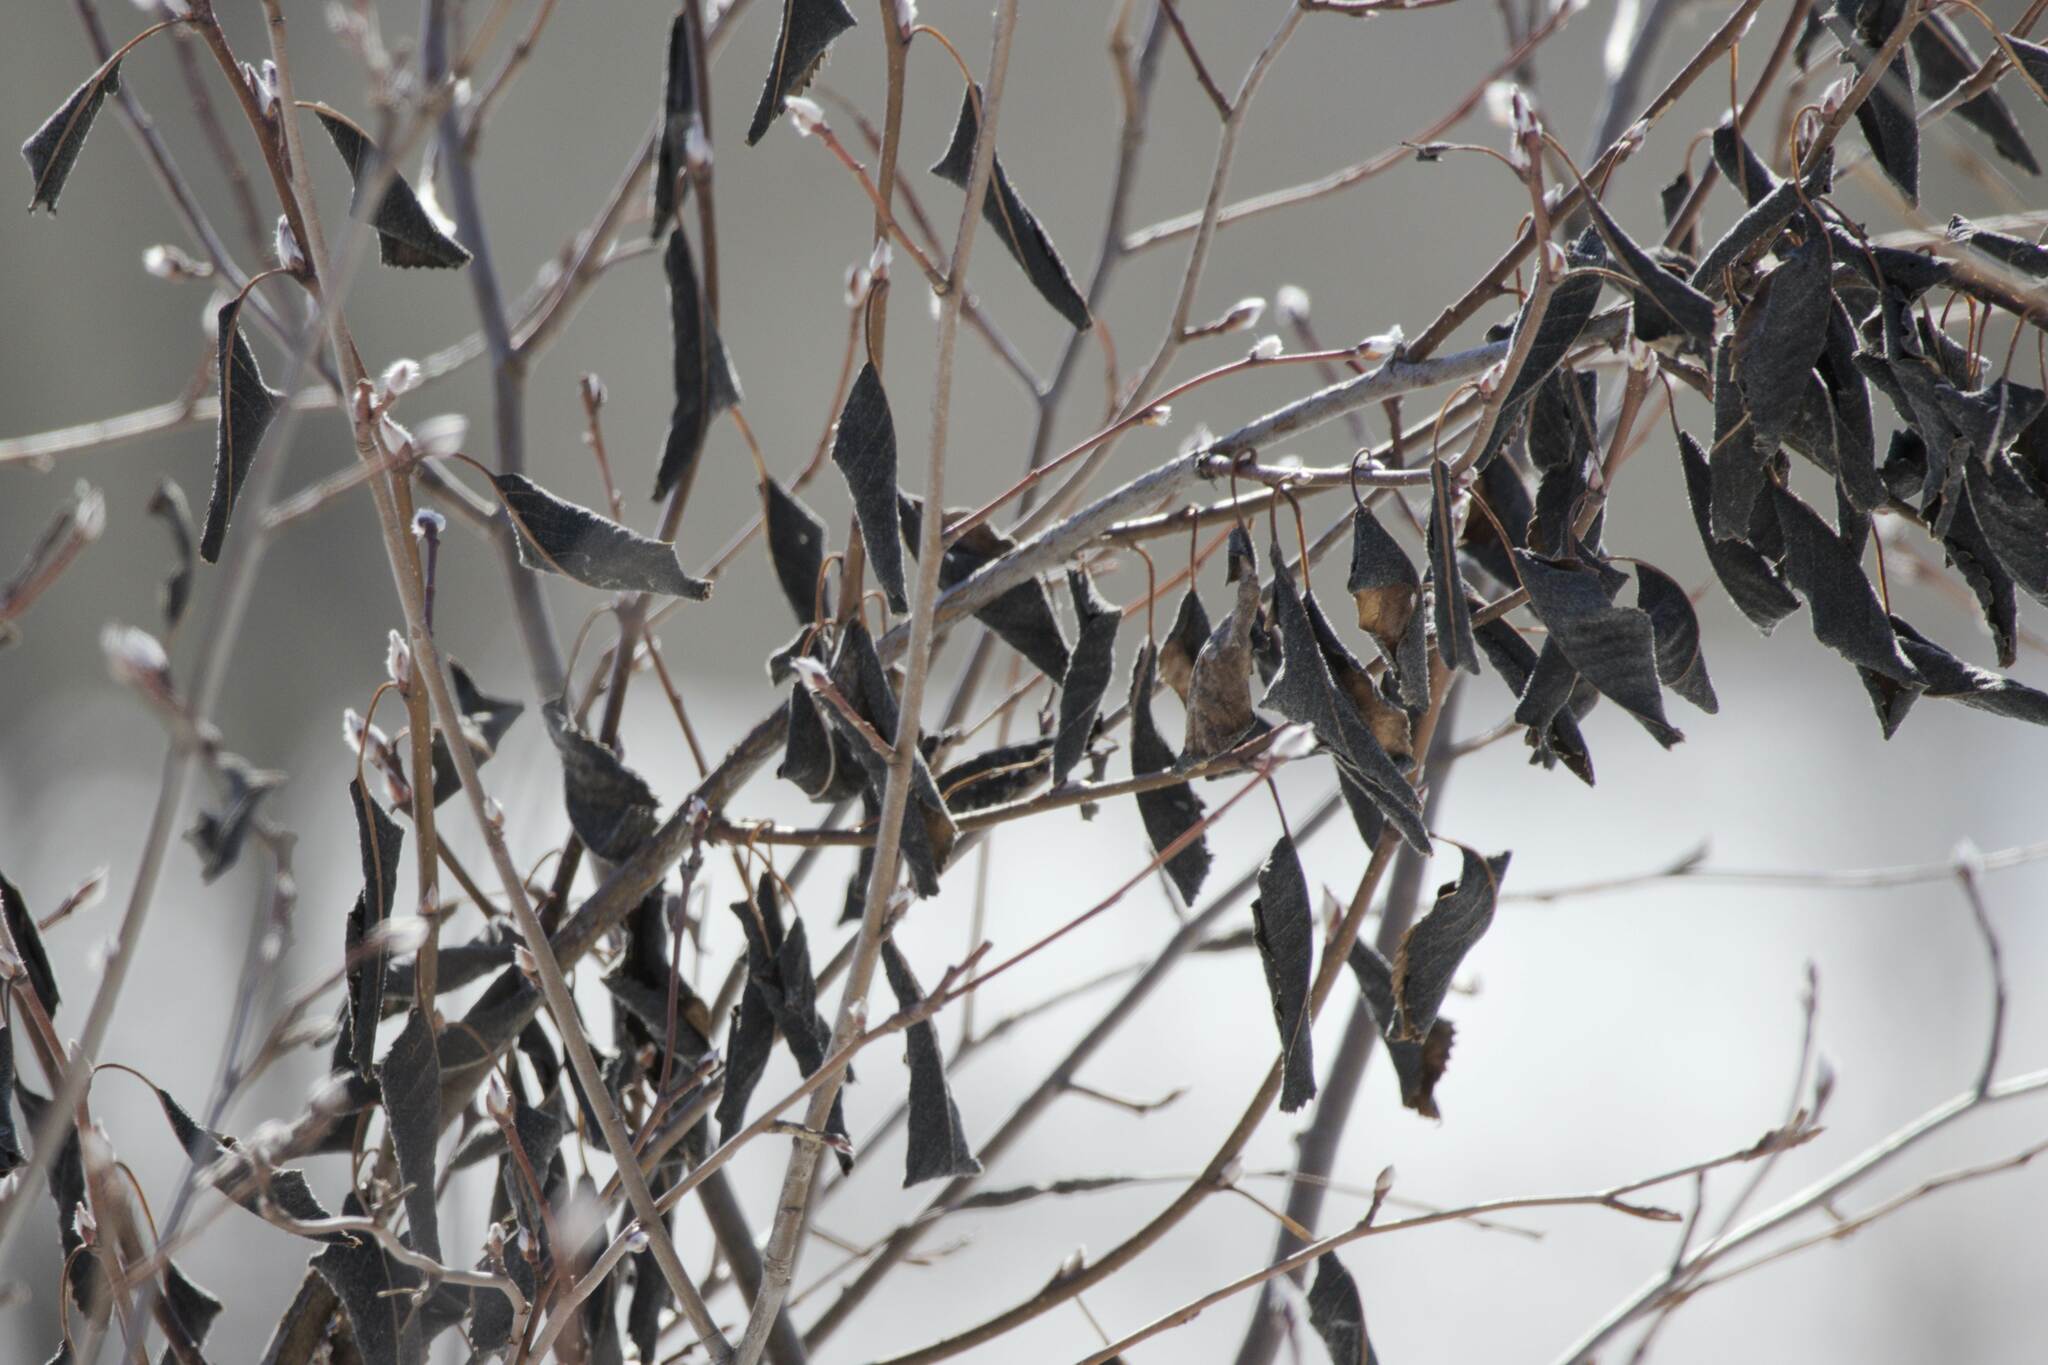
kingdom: Fungi
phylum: Ascomycota
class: Dothideomycetes
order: Venturiales
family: Venturiaceae
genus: Apiosporina
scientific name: Apiosporina collinsii
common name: Black leaf
